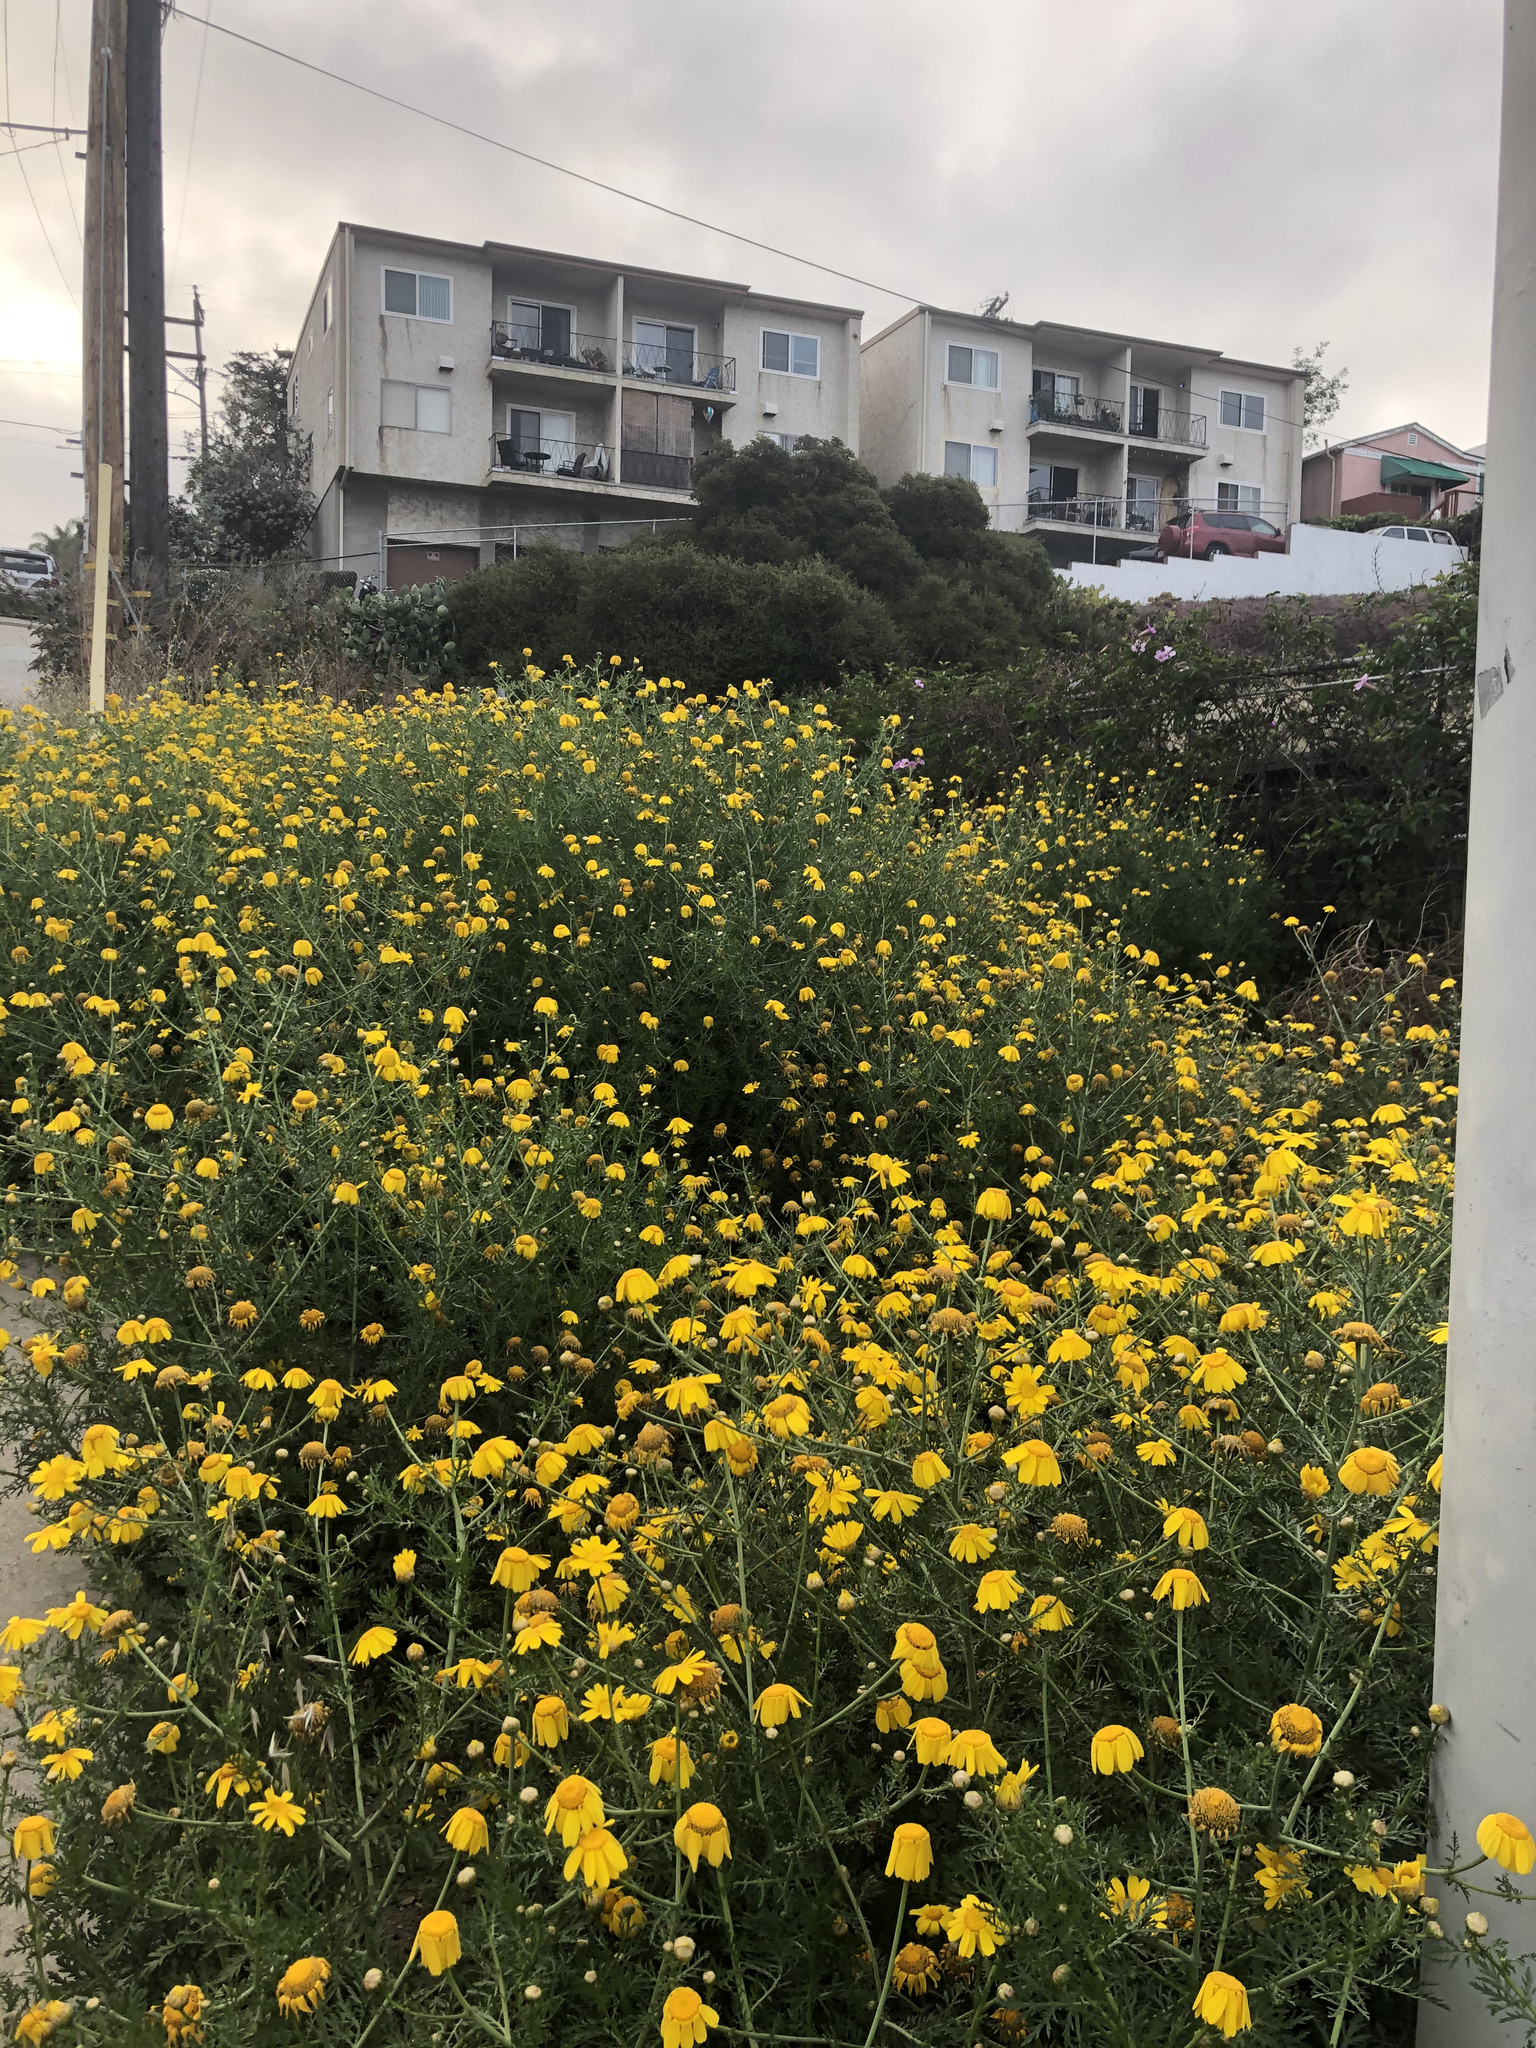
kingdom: Plantae
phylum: Tracheophyta
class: Magnoliopsida
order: Asterales
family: Asteraceae
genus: Glebionis
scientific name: Glebionis coronaria
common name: Crowndaisy
